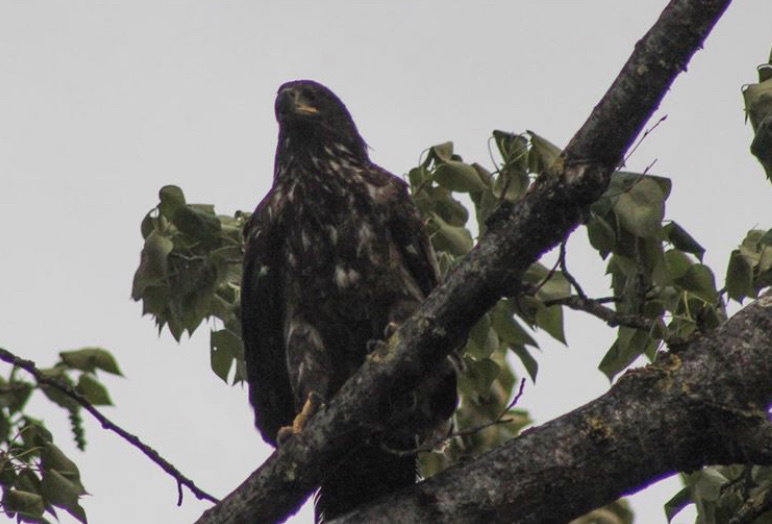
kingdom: Animalia
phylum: Chordata
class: Aves
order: Accipitriformes
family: Accipitridae
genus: Haliaeetus
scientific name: Haliaeetus leucocephalus
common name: Bald eagle
